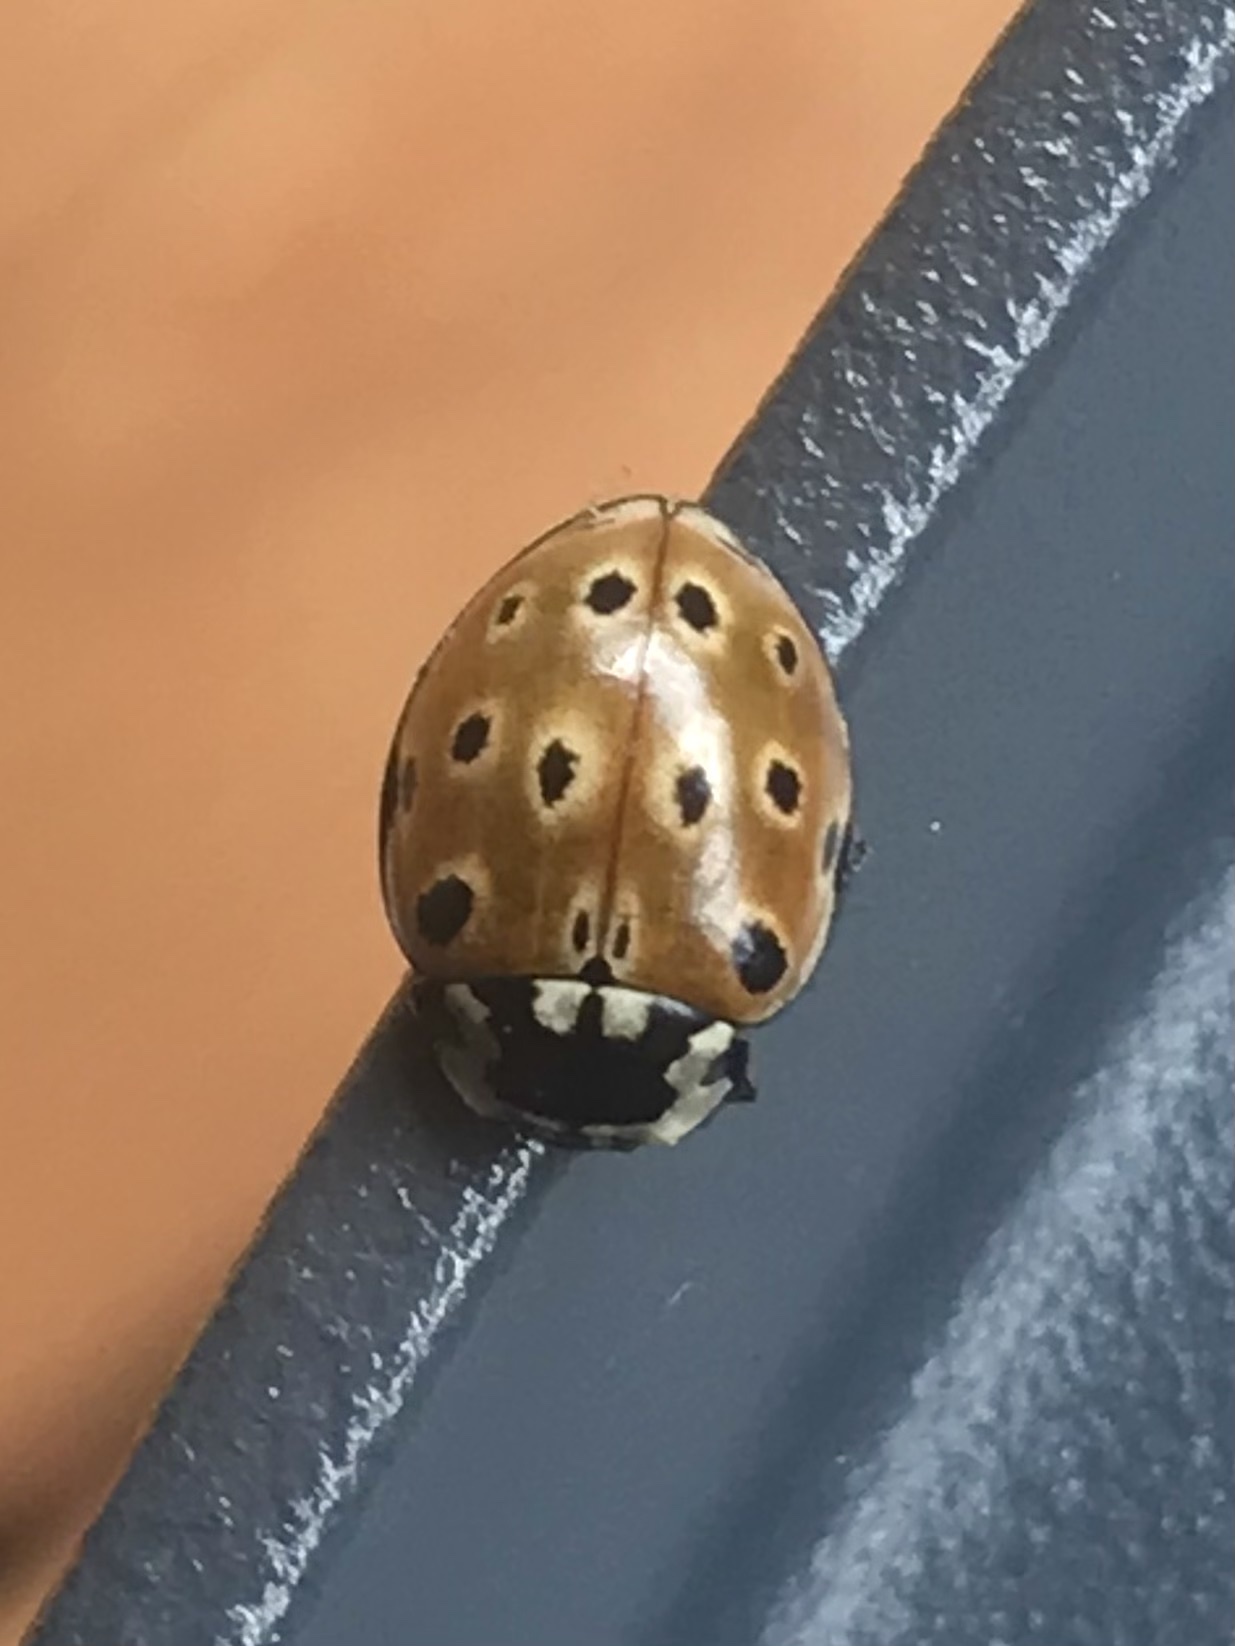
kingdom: Animalia
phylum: Arthropoda
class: Insecta
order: Coleoptera
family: Coccinellidae
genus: Anatis
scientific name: Anatis ocellata
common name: Eyed ladybird
